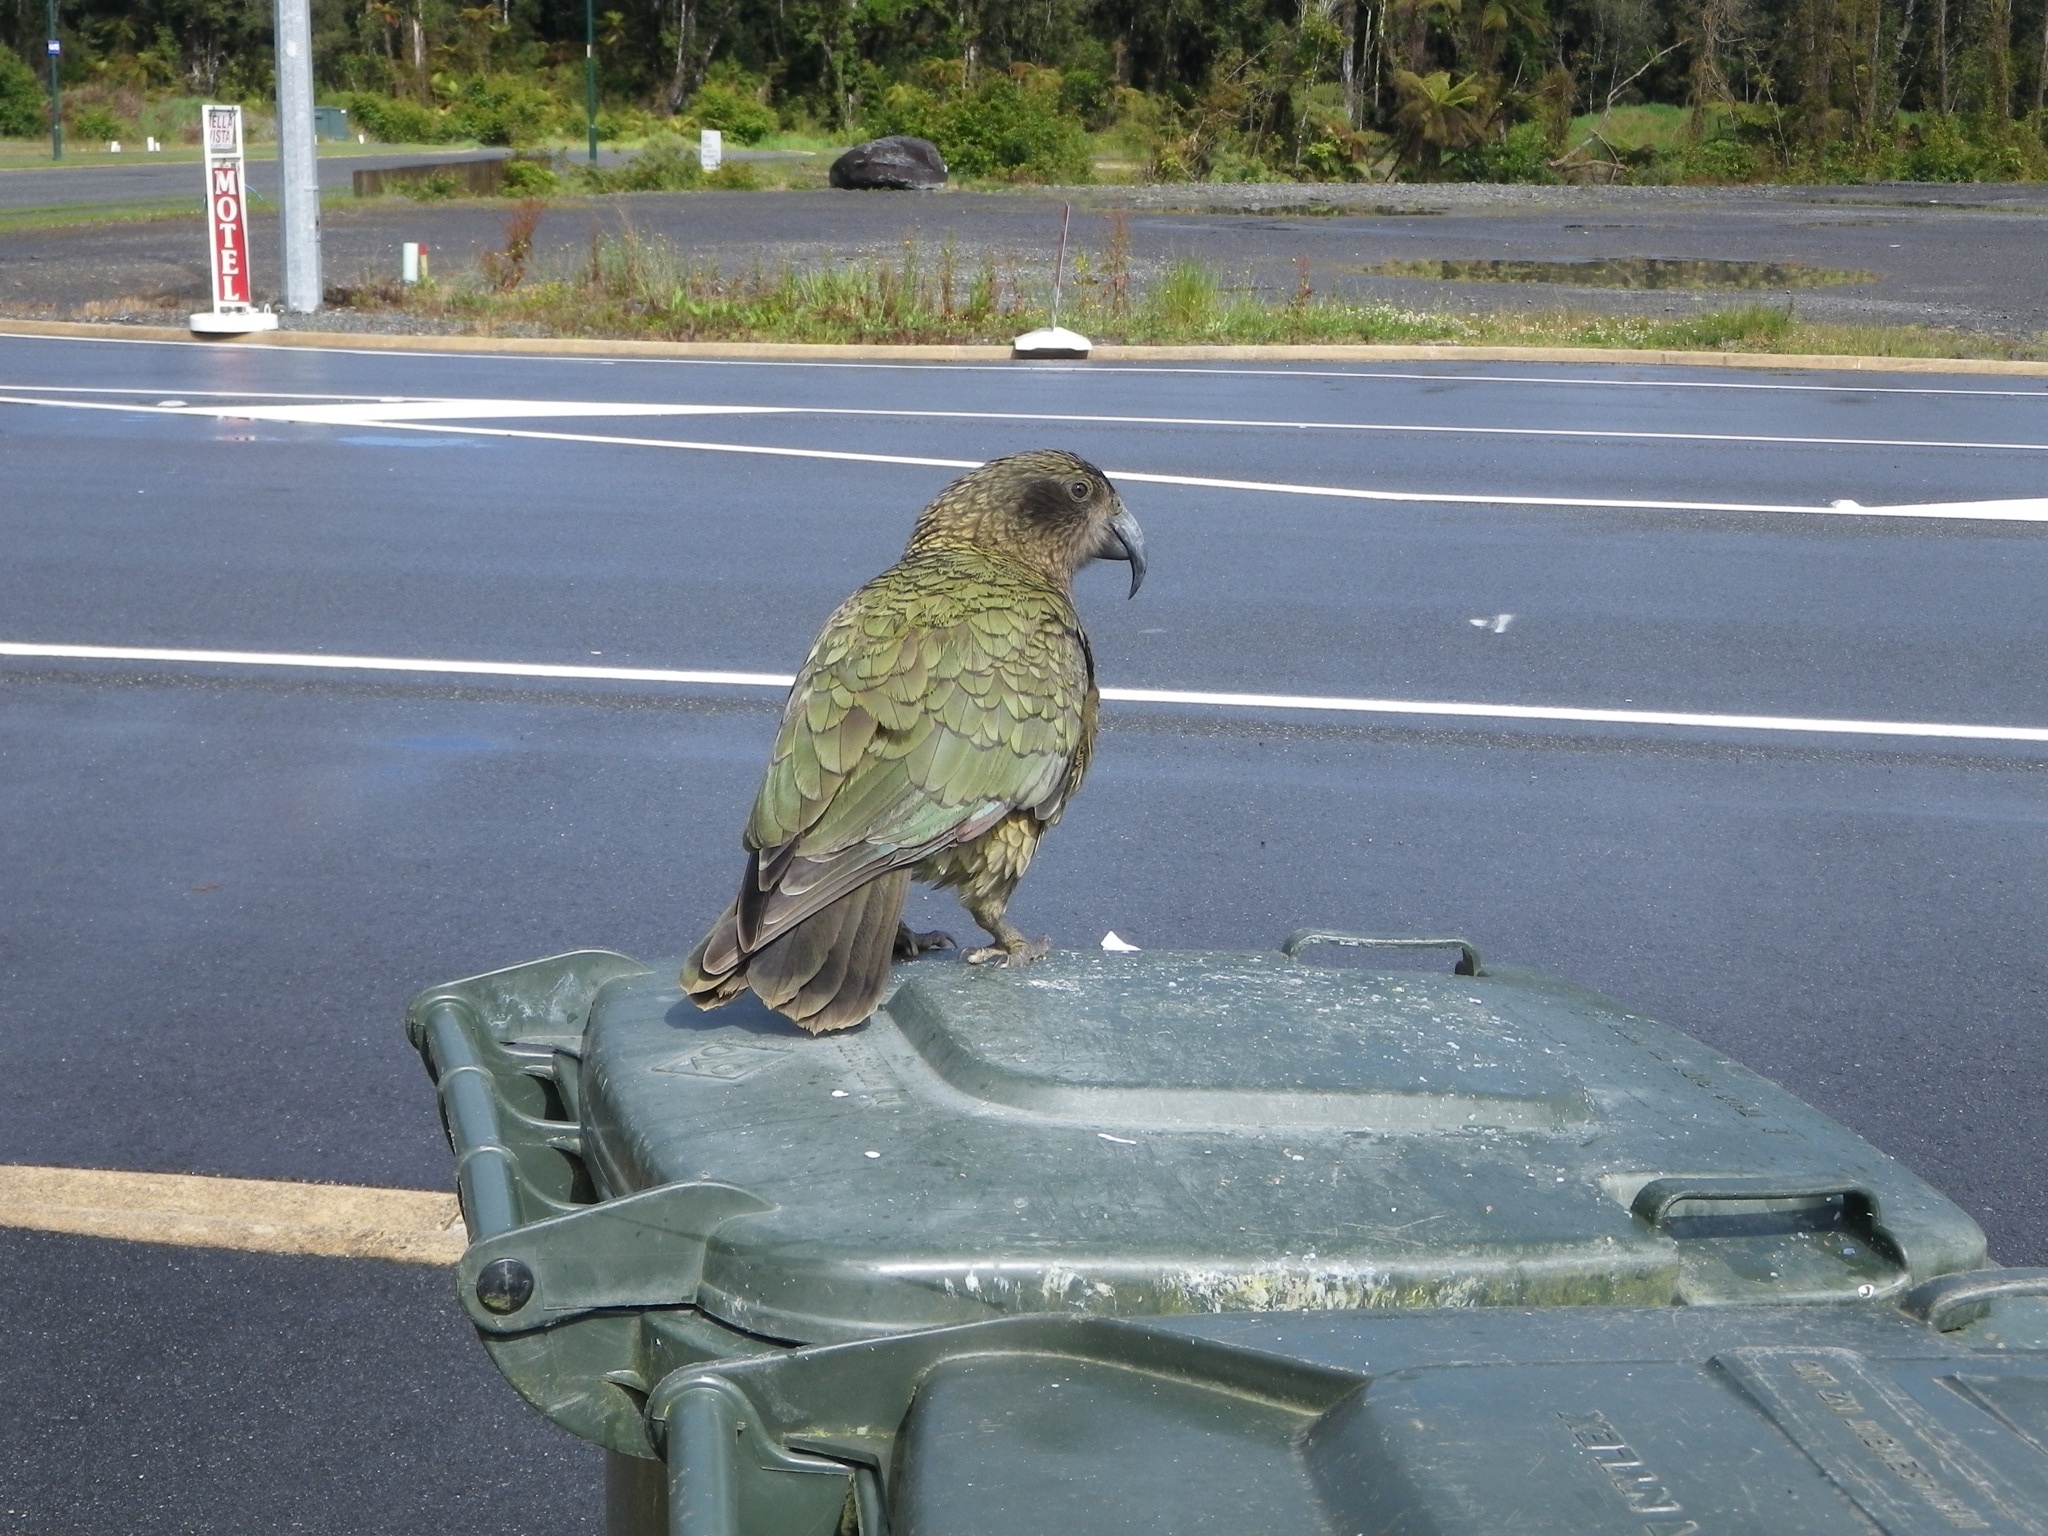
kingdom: Animalia
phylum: Chordata
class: Aves
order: Psittaciformes
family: Psittacidae
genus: Nestor
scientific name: Nestor notabilis
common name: Kea
